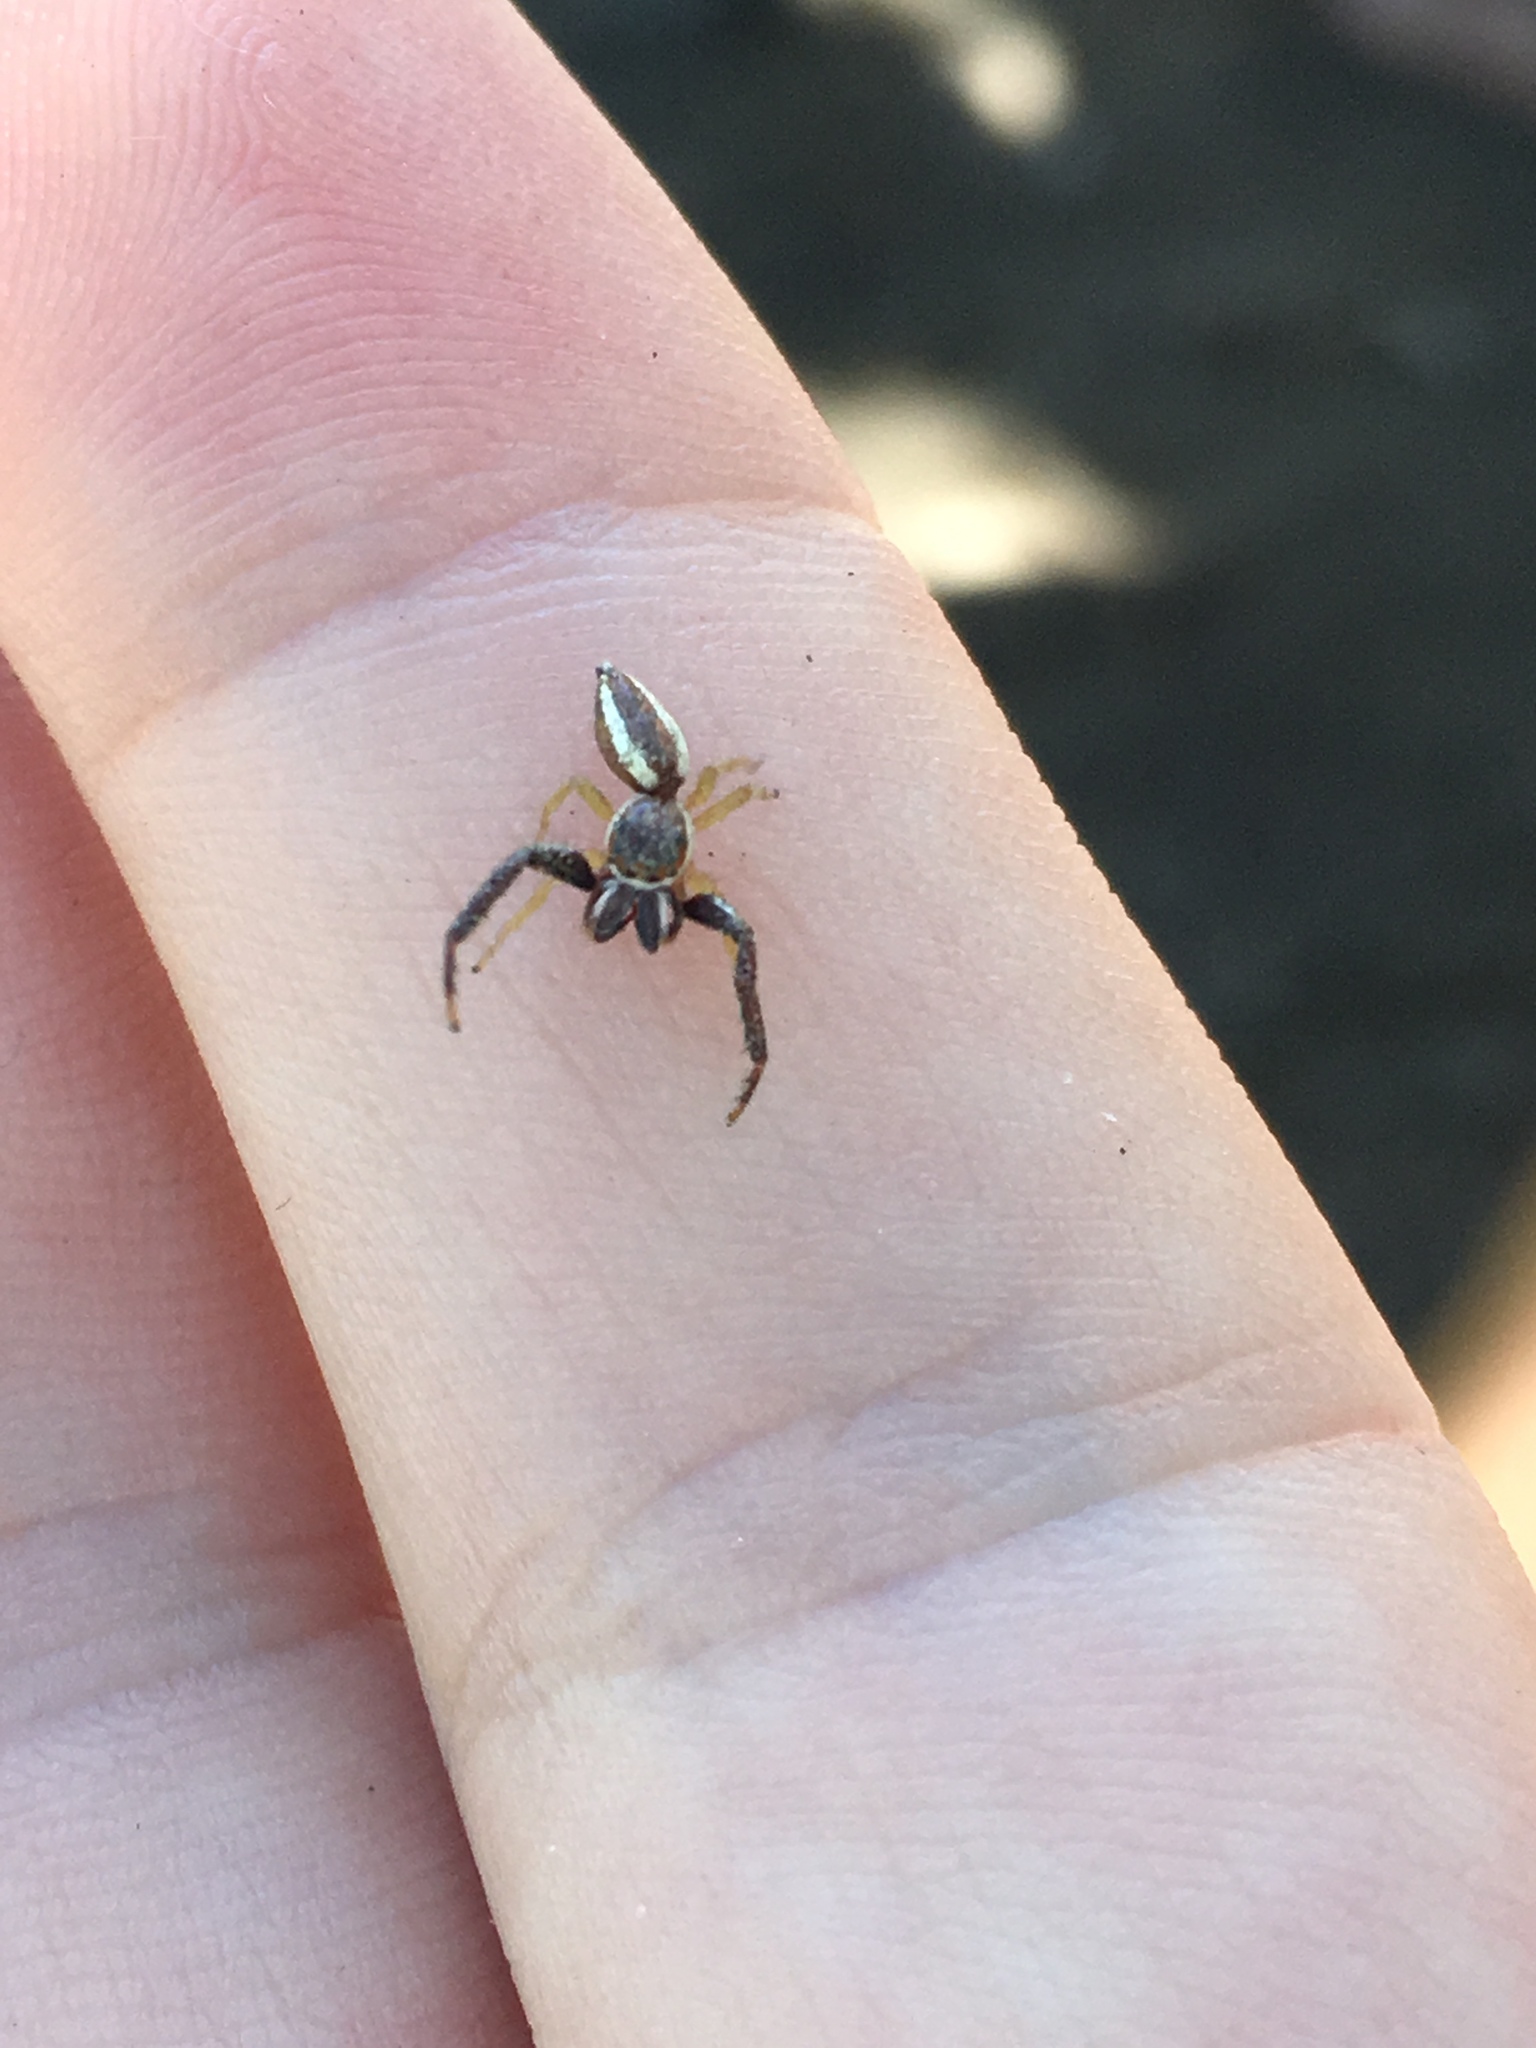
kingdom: Animalia
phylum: Arthropoda
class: Arachnida
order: Araneae
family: Salticidae
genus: Hentzia
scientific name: Hentzia palmarum
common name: Common hentz jumping spider
